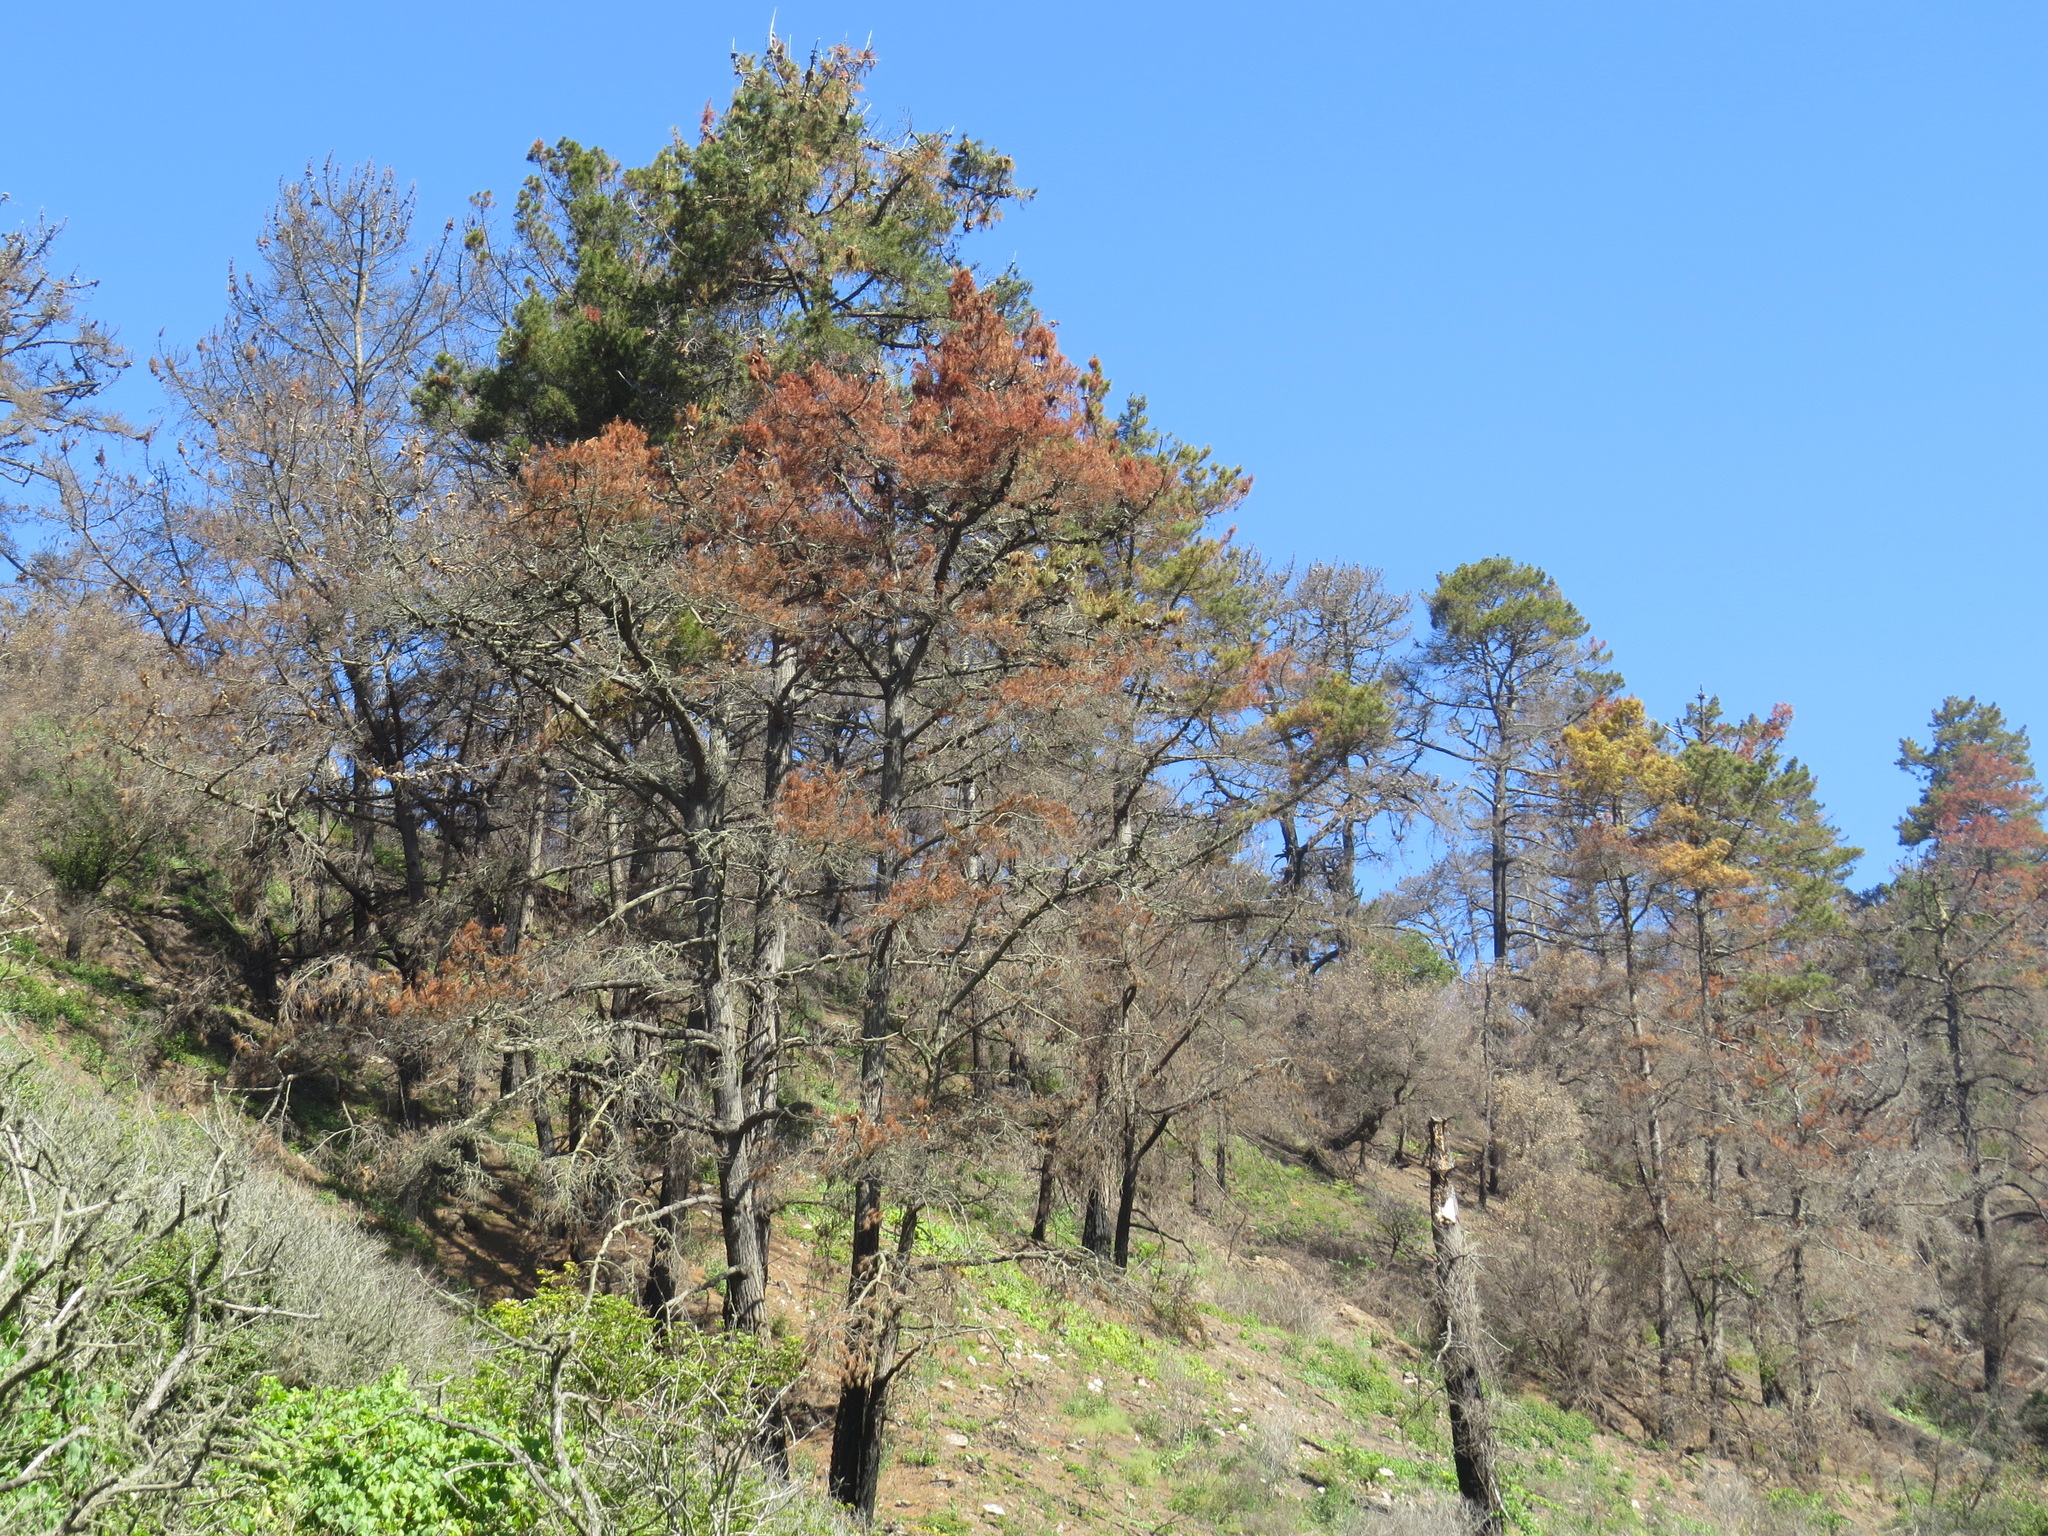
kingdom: Plantae
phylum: Tracheophyta
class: Pinopsida
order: Pinales
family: Pinaceae
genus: Pinus
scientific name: Pinus radiata
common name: Monterey pine
